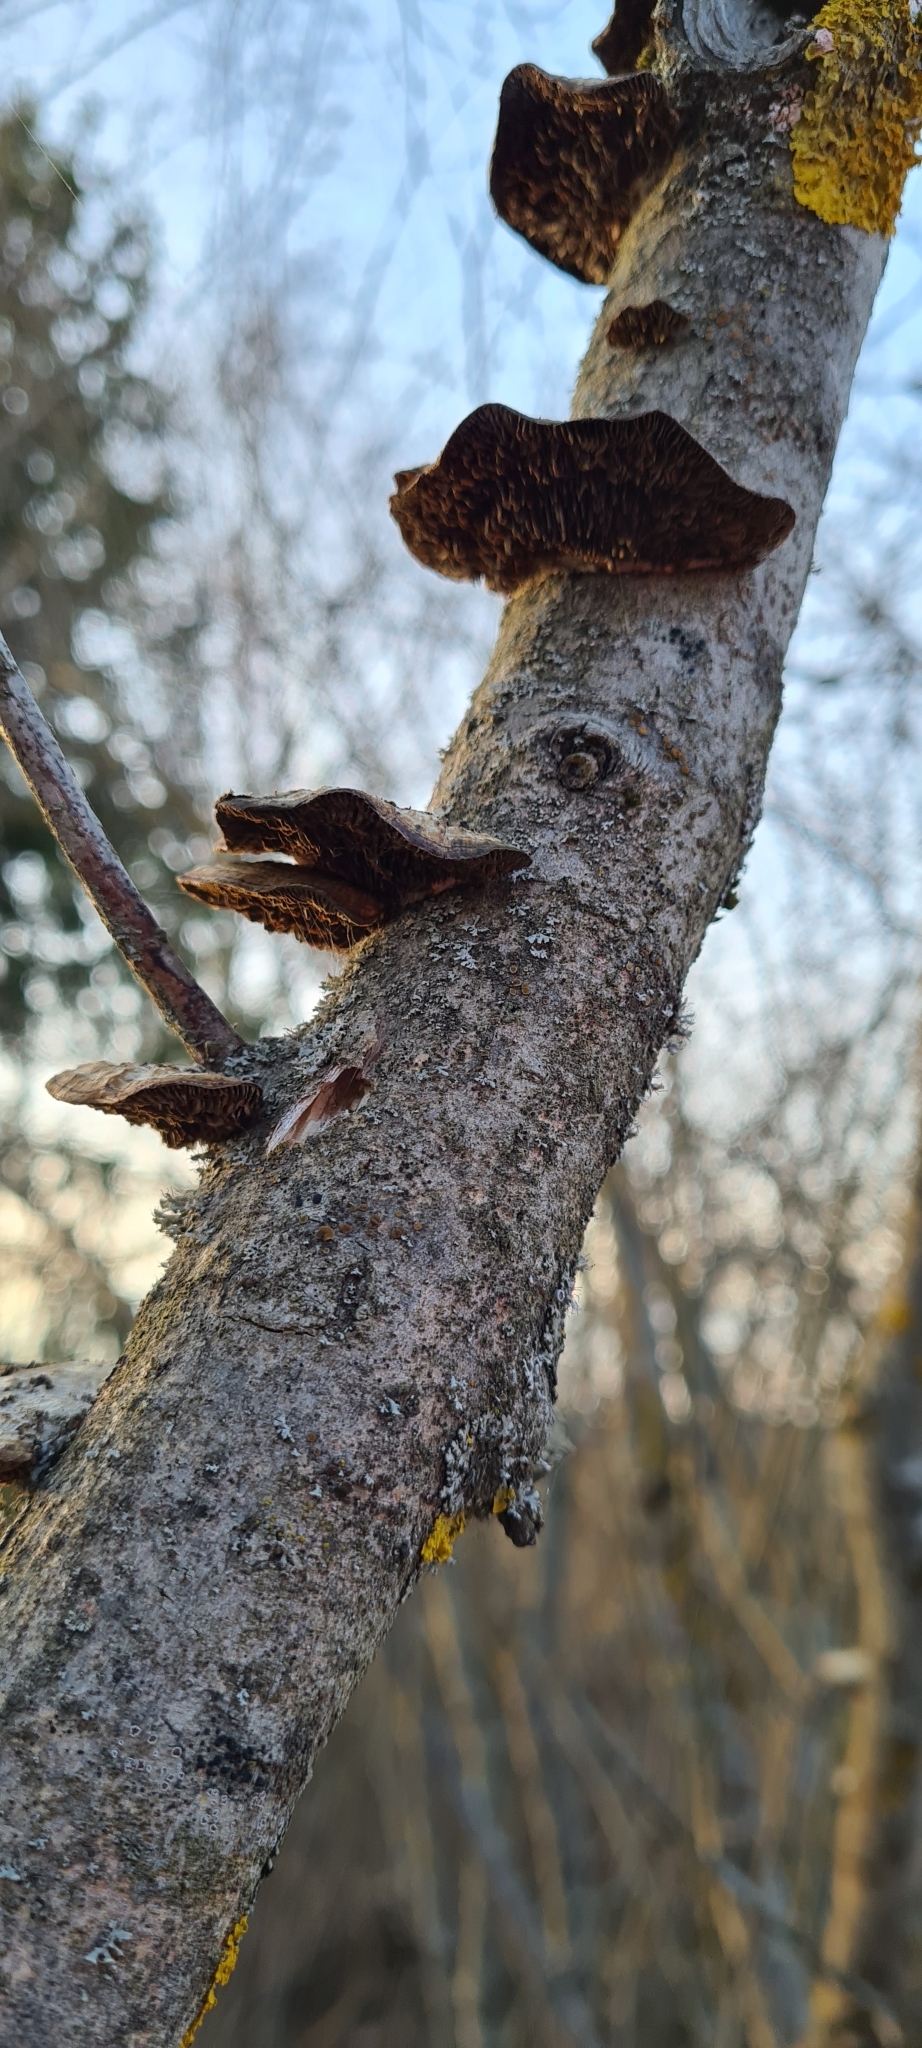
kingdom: Fungi
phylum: Basidiomycota
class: Agaricomycetes
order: Polyporales
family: Polyporaceae
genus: Daedaleopsis
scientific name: Daedaleopsis confragosa
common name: Blushing bracket
